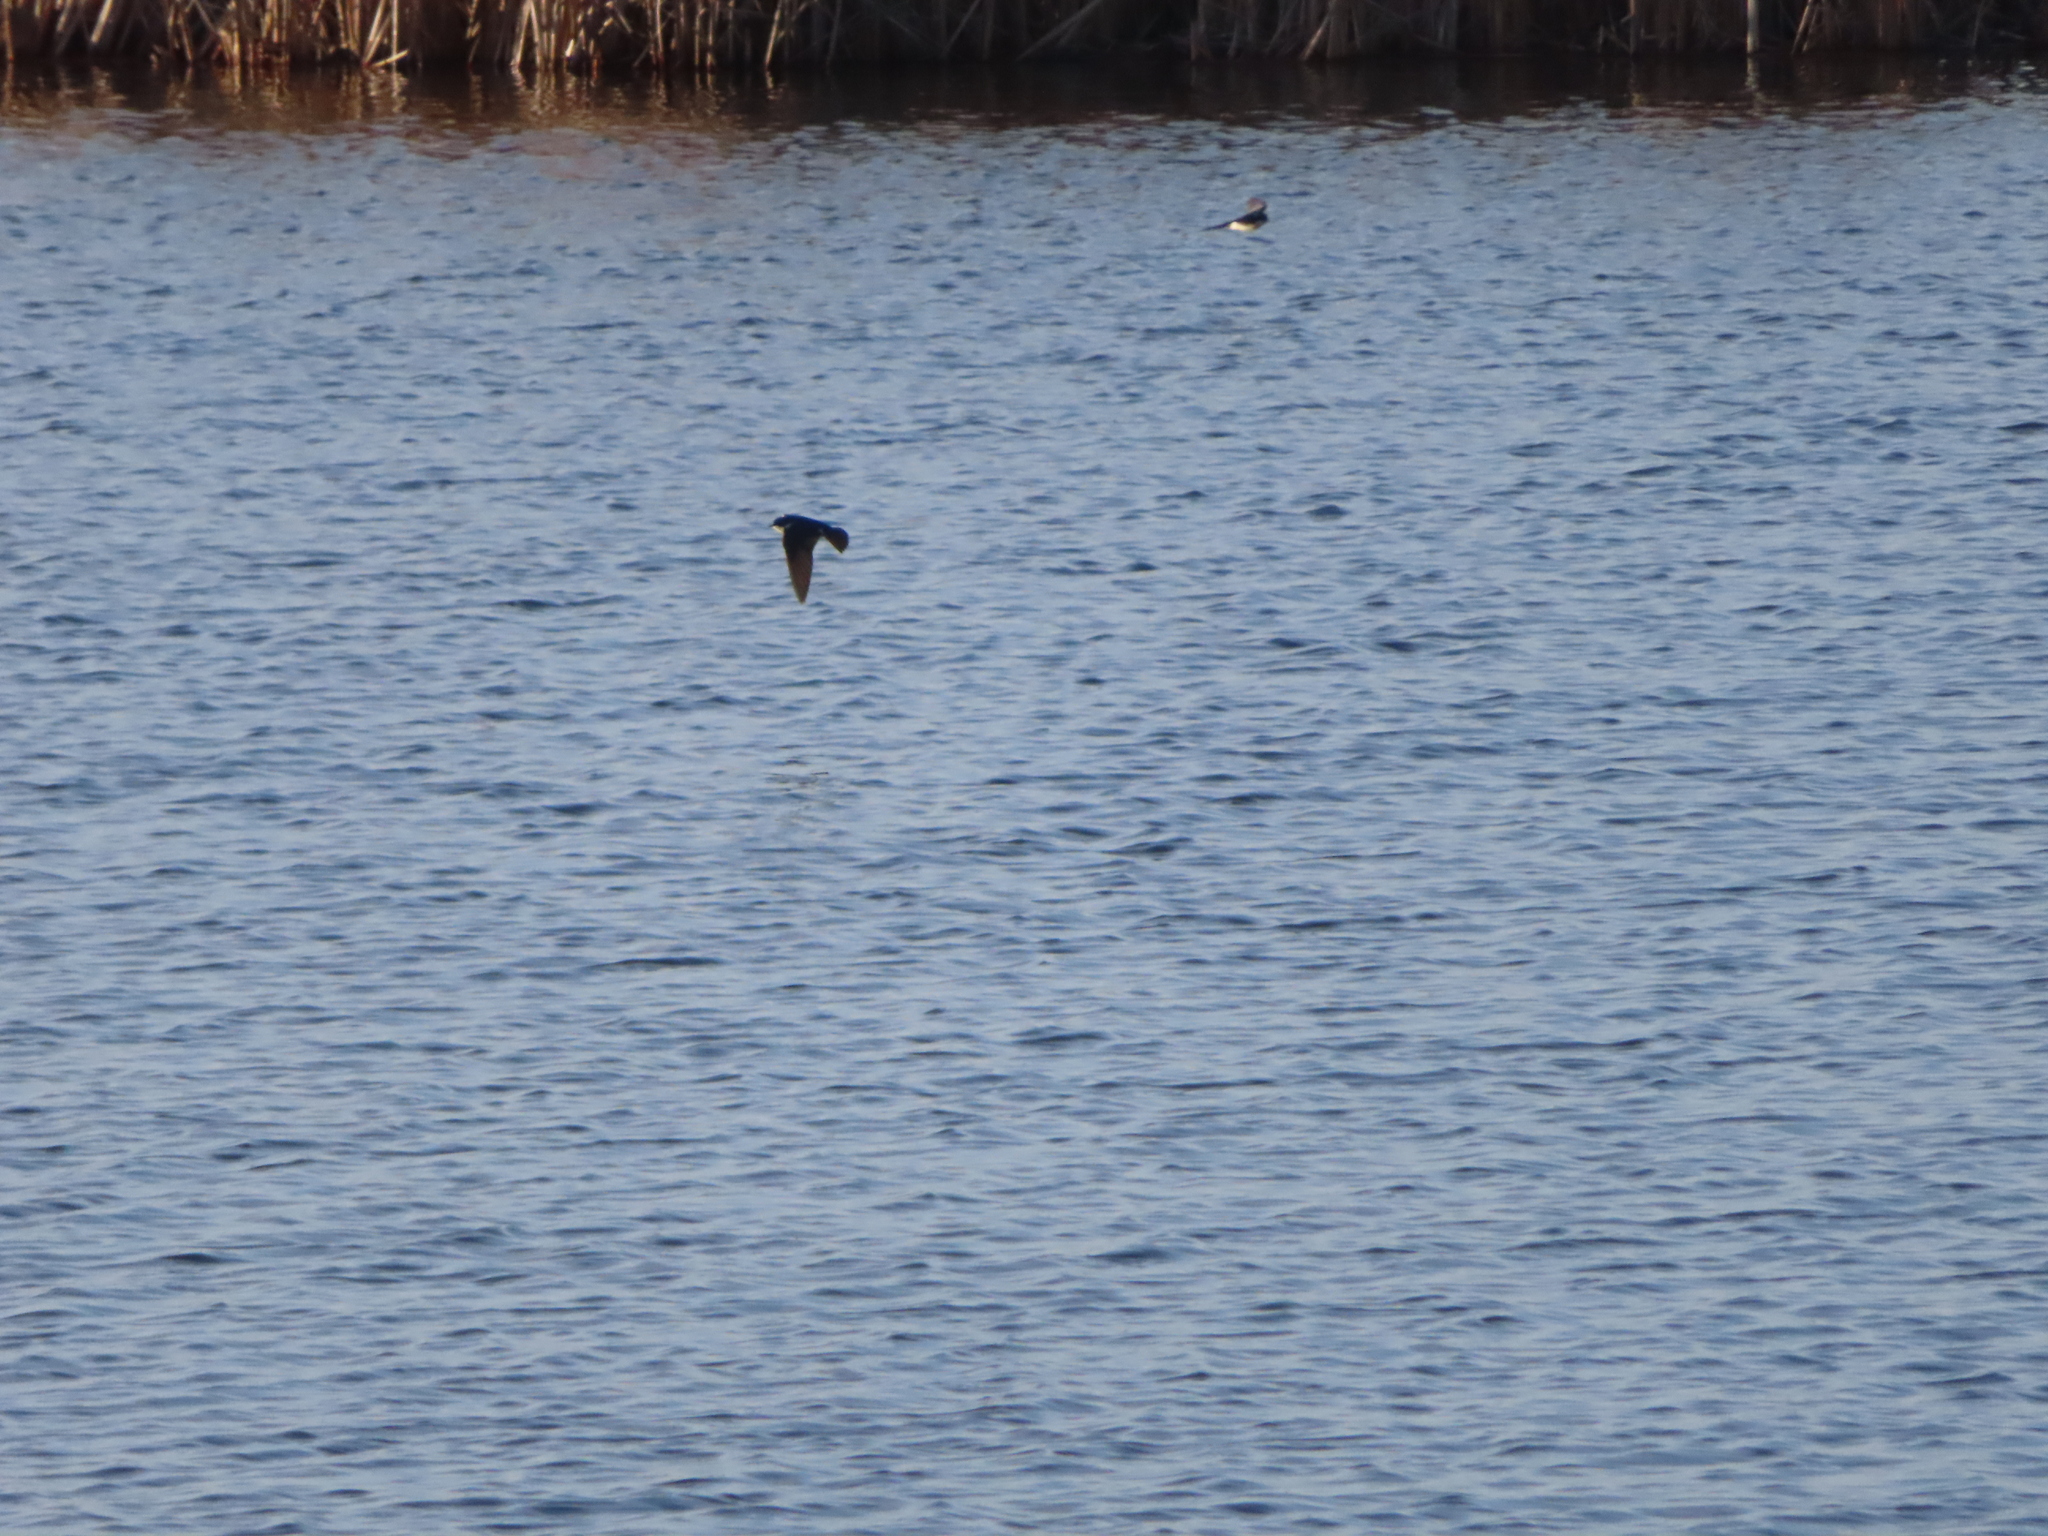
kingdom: Animalia
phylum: Chordata
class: Aves
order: Passeriformes
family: Hirundinidae
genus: Tachycineta
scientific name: Tachycineta bicolor
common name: Tree swallow
